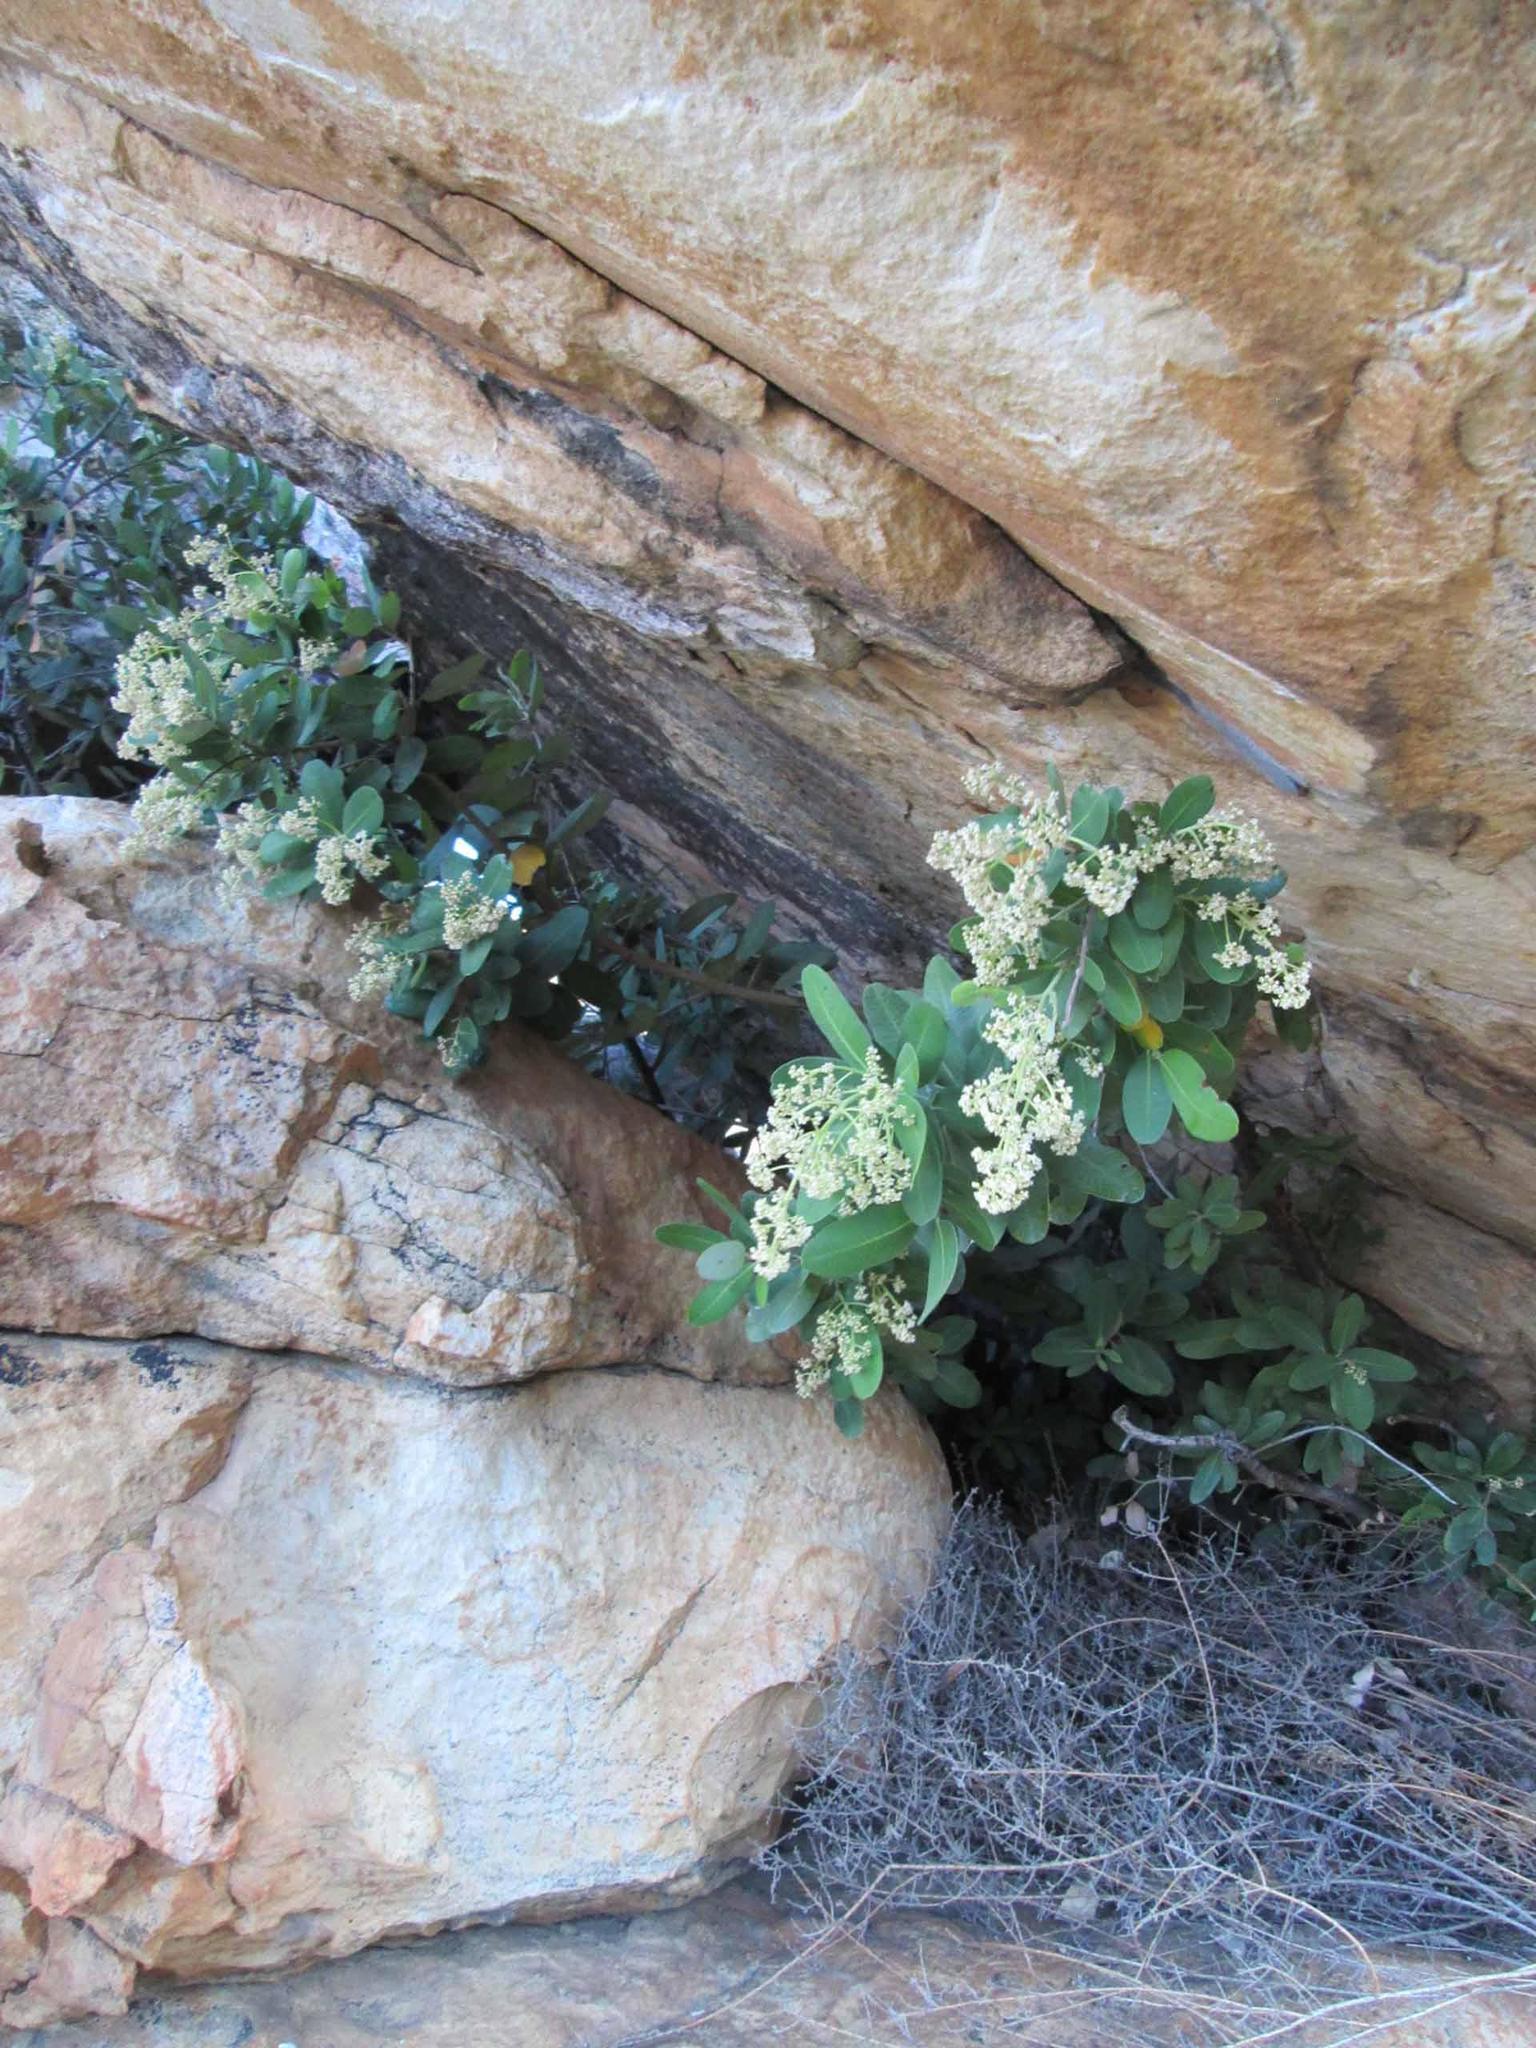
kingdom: Plantae
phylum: Tracheophyta
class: Magnoliopsida
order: Sapindales
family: Anacardiaceae
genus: Heeria
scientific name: Heeria argentea
